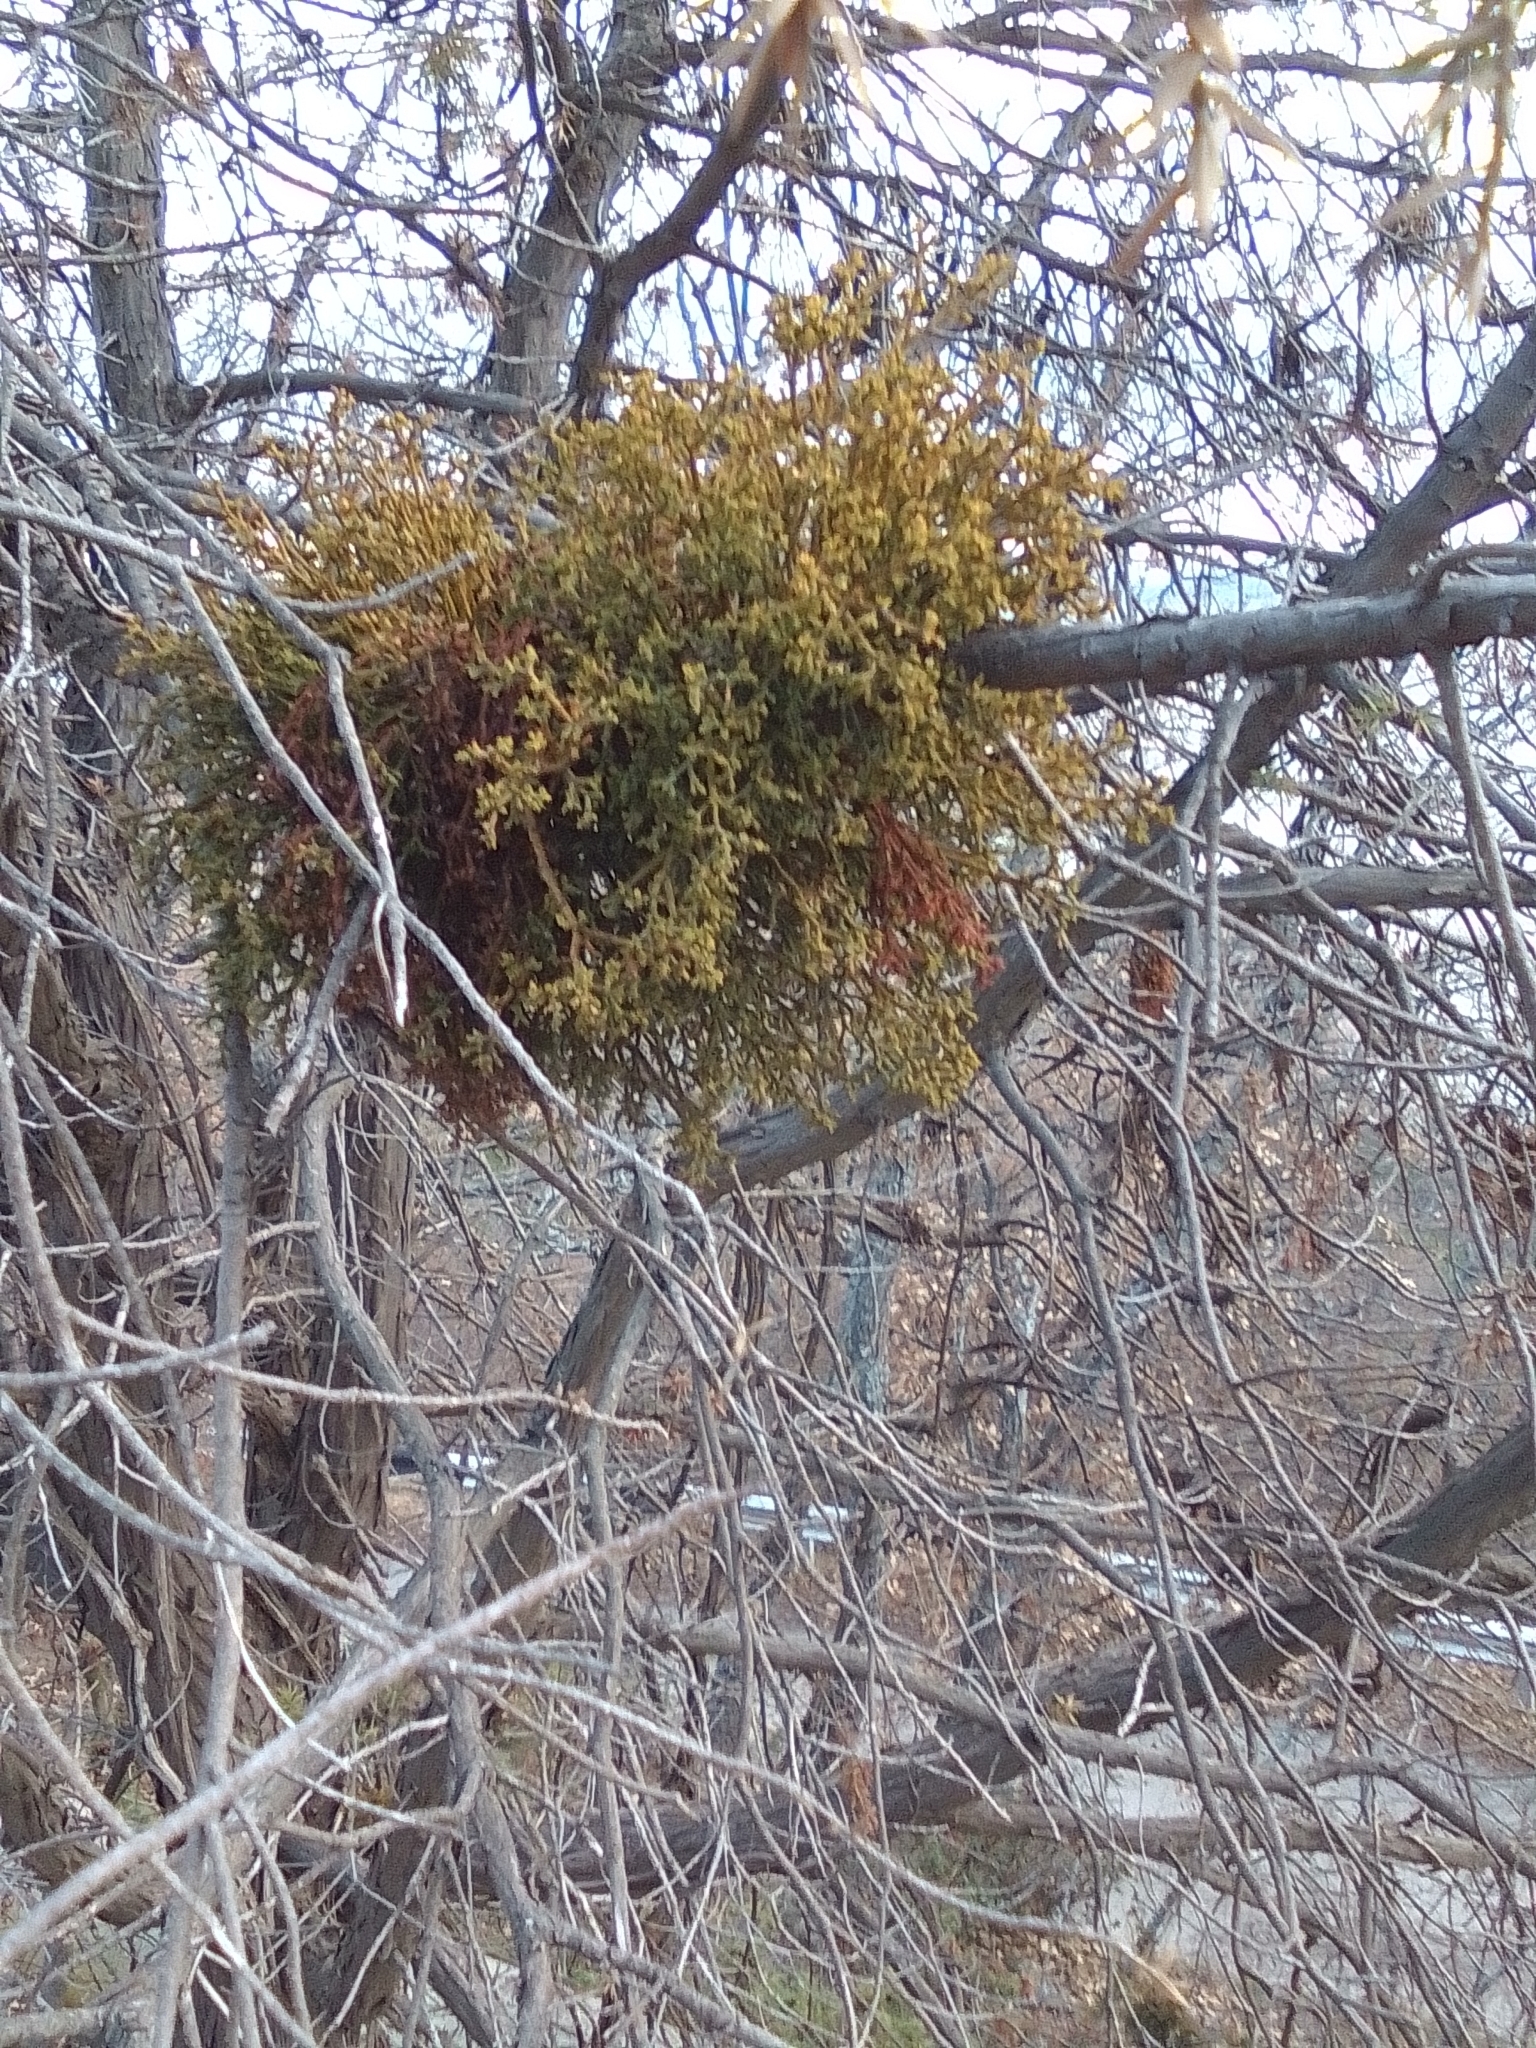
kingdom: Plantae
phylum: Tracheophyta
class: Magnoliopsida
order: Santalales
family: Viscaceae
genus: Arceuthobium
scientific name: Arceuthobium oxycedri
